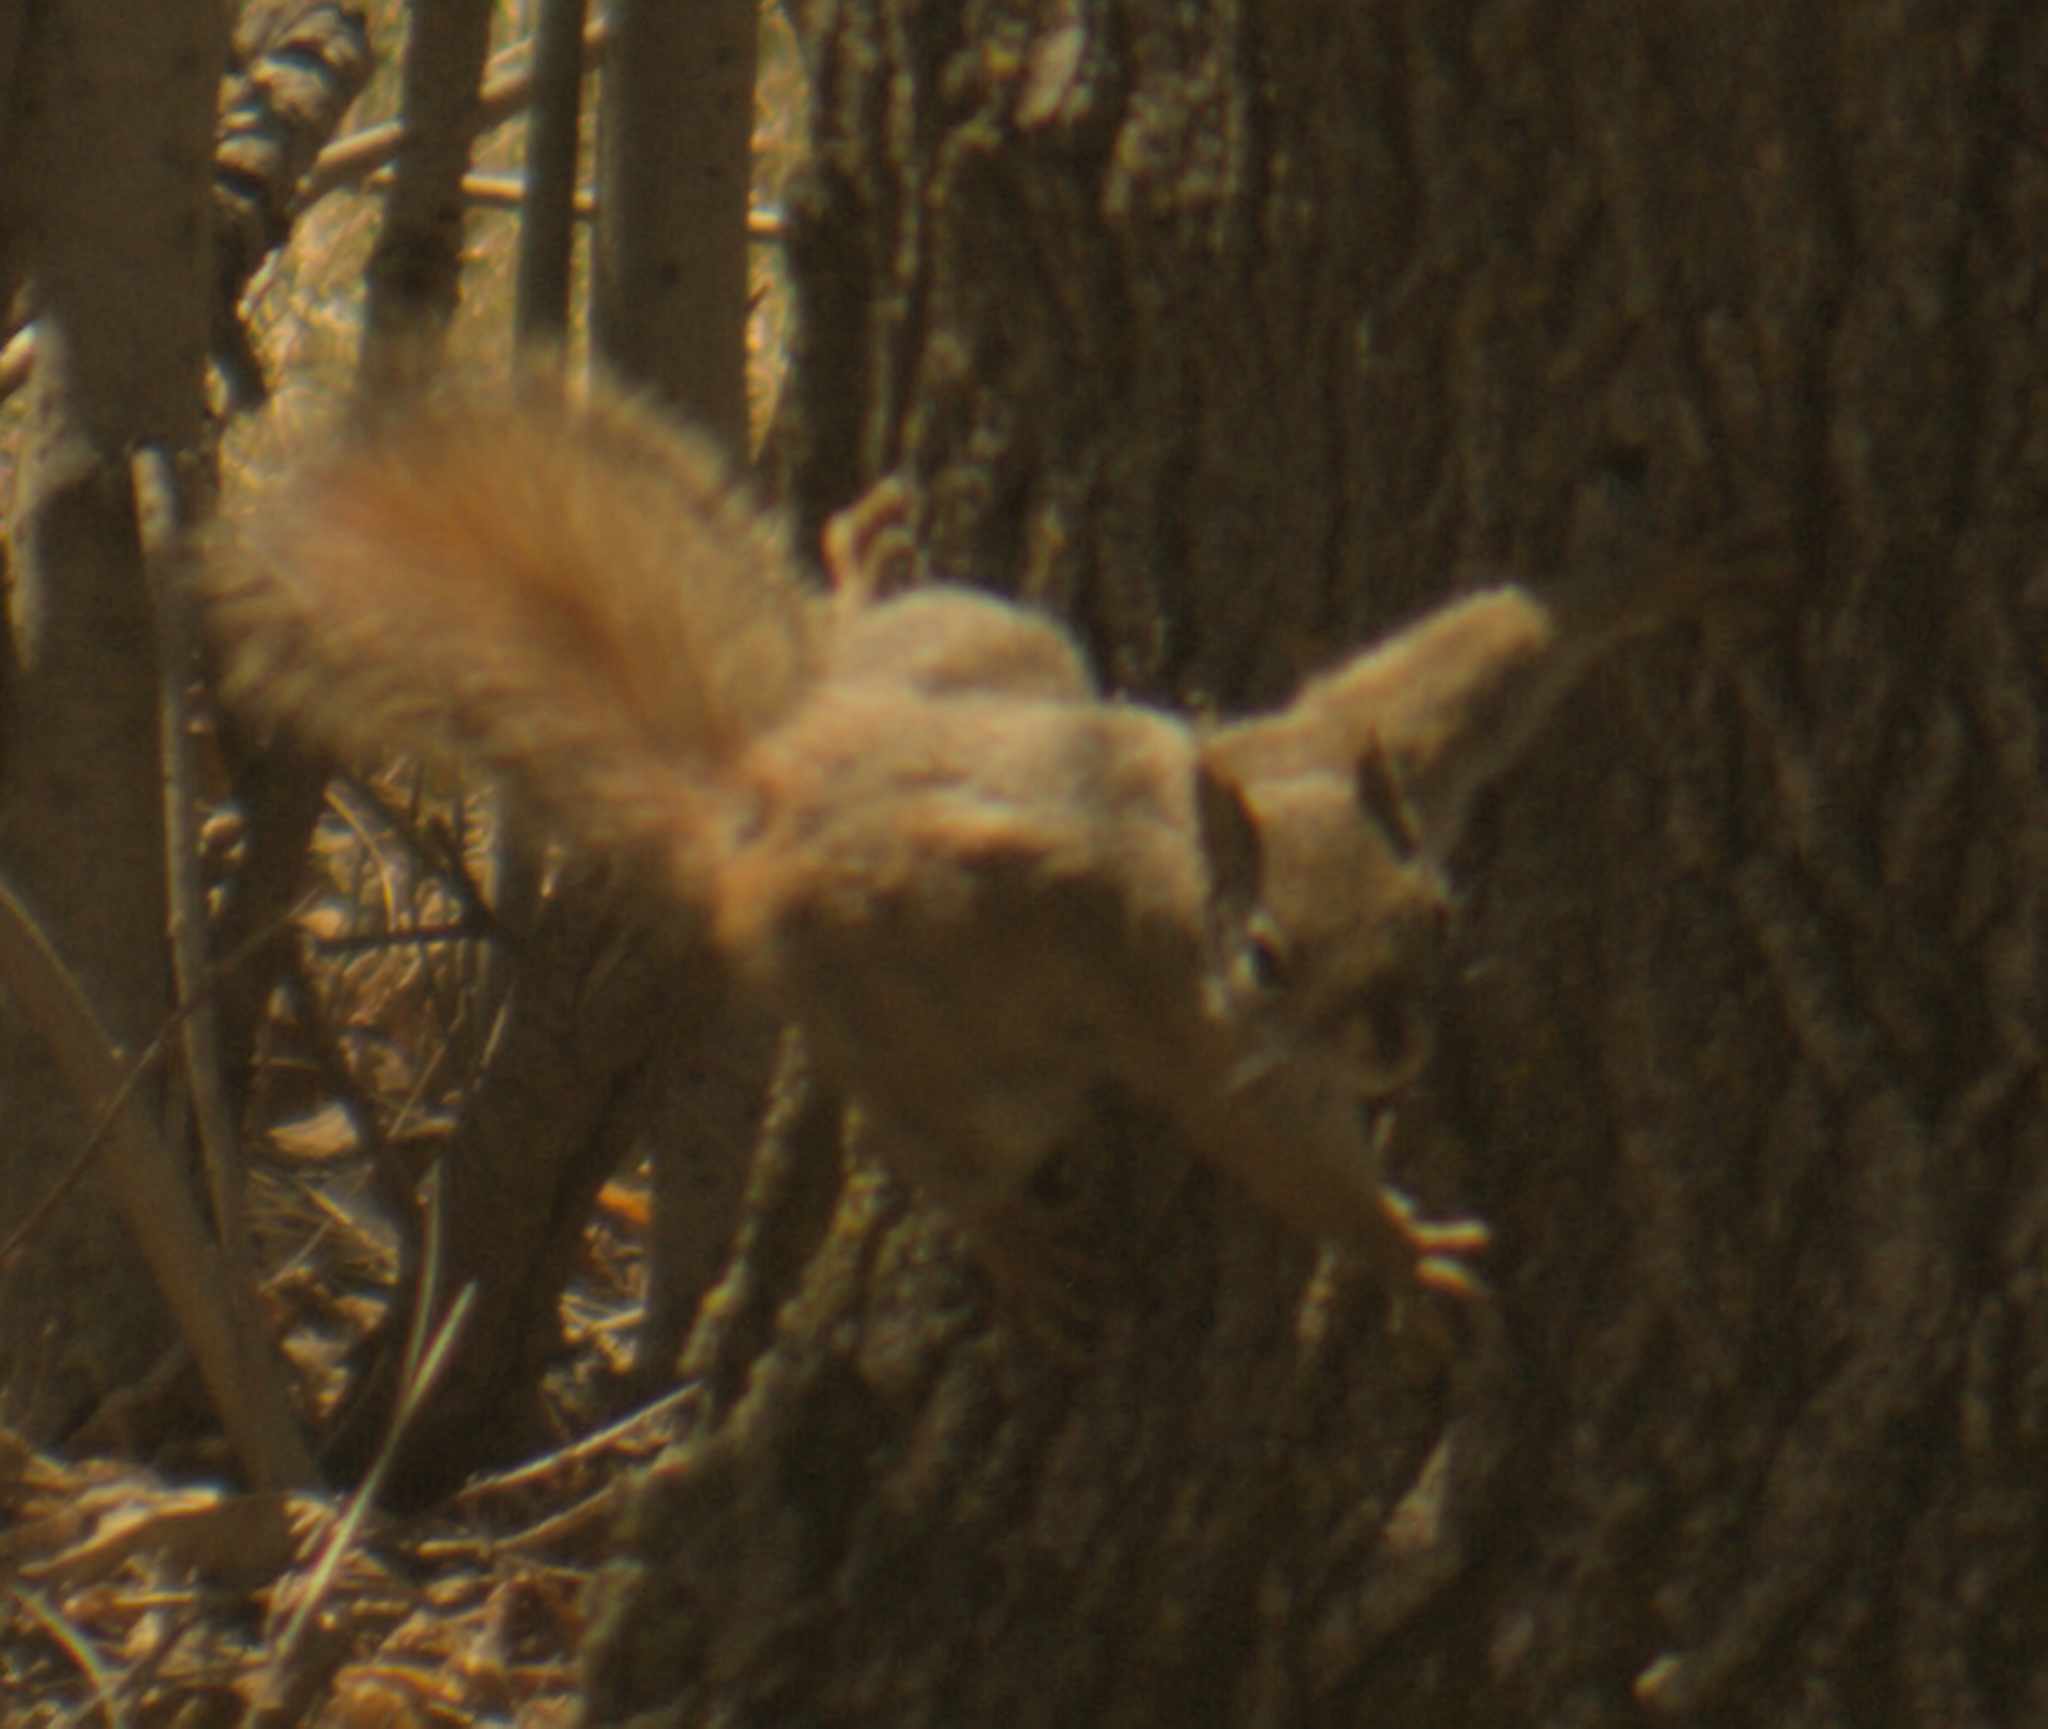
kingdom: Animalia
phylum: Chordata
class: Mammalia
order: Rodentia
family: Sciuridae
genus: Tamiasciurus
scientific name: Tamiasciurus hudsonicus
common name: Red squirrel
